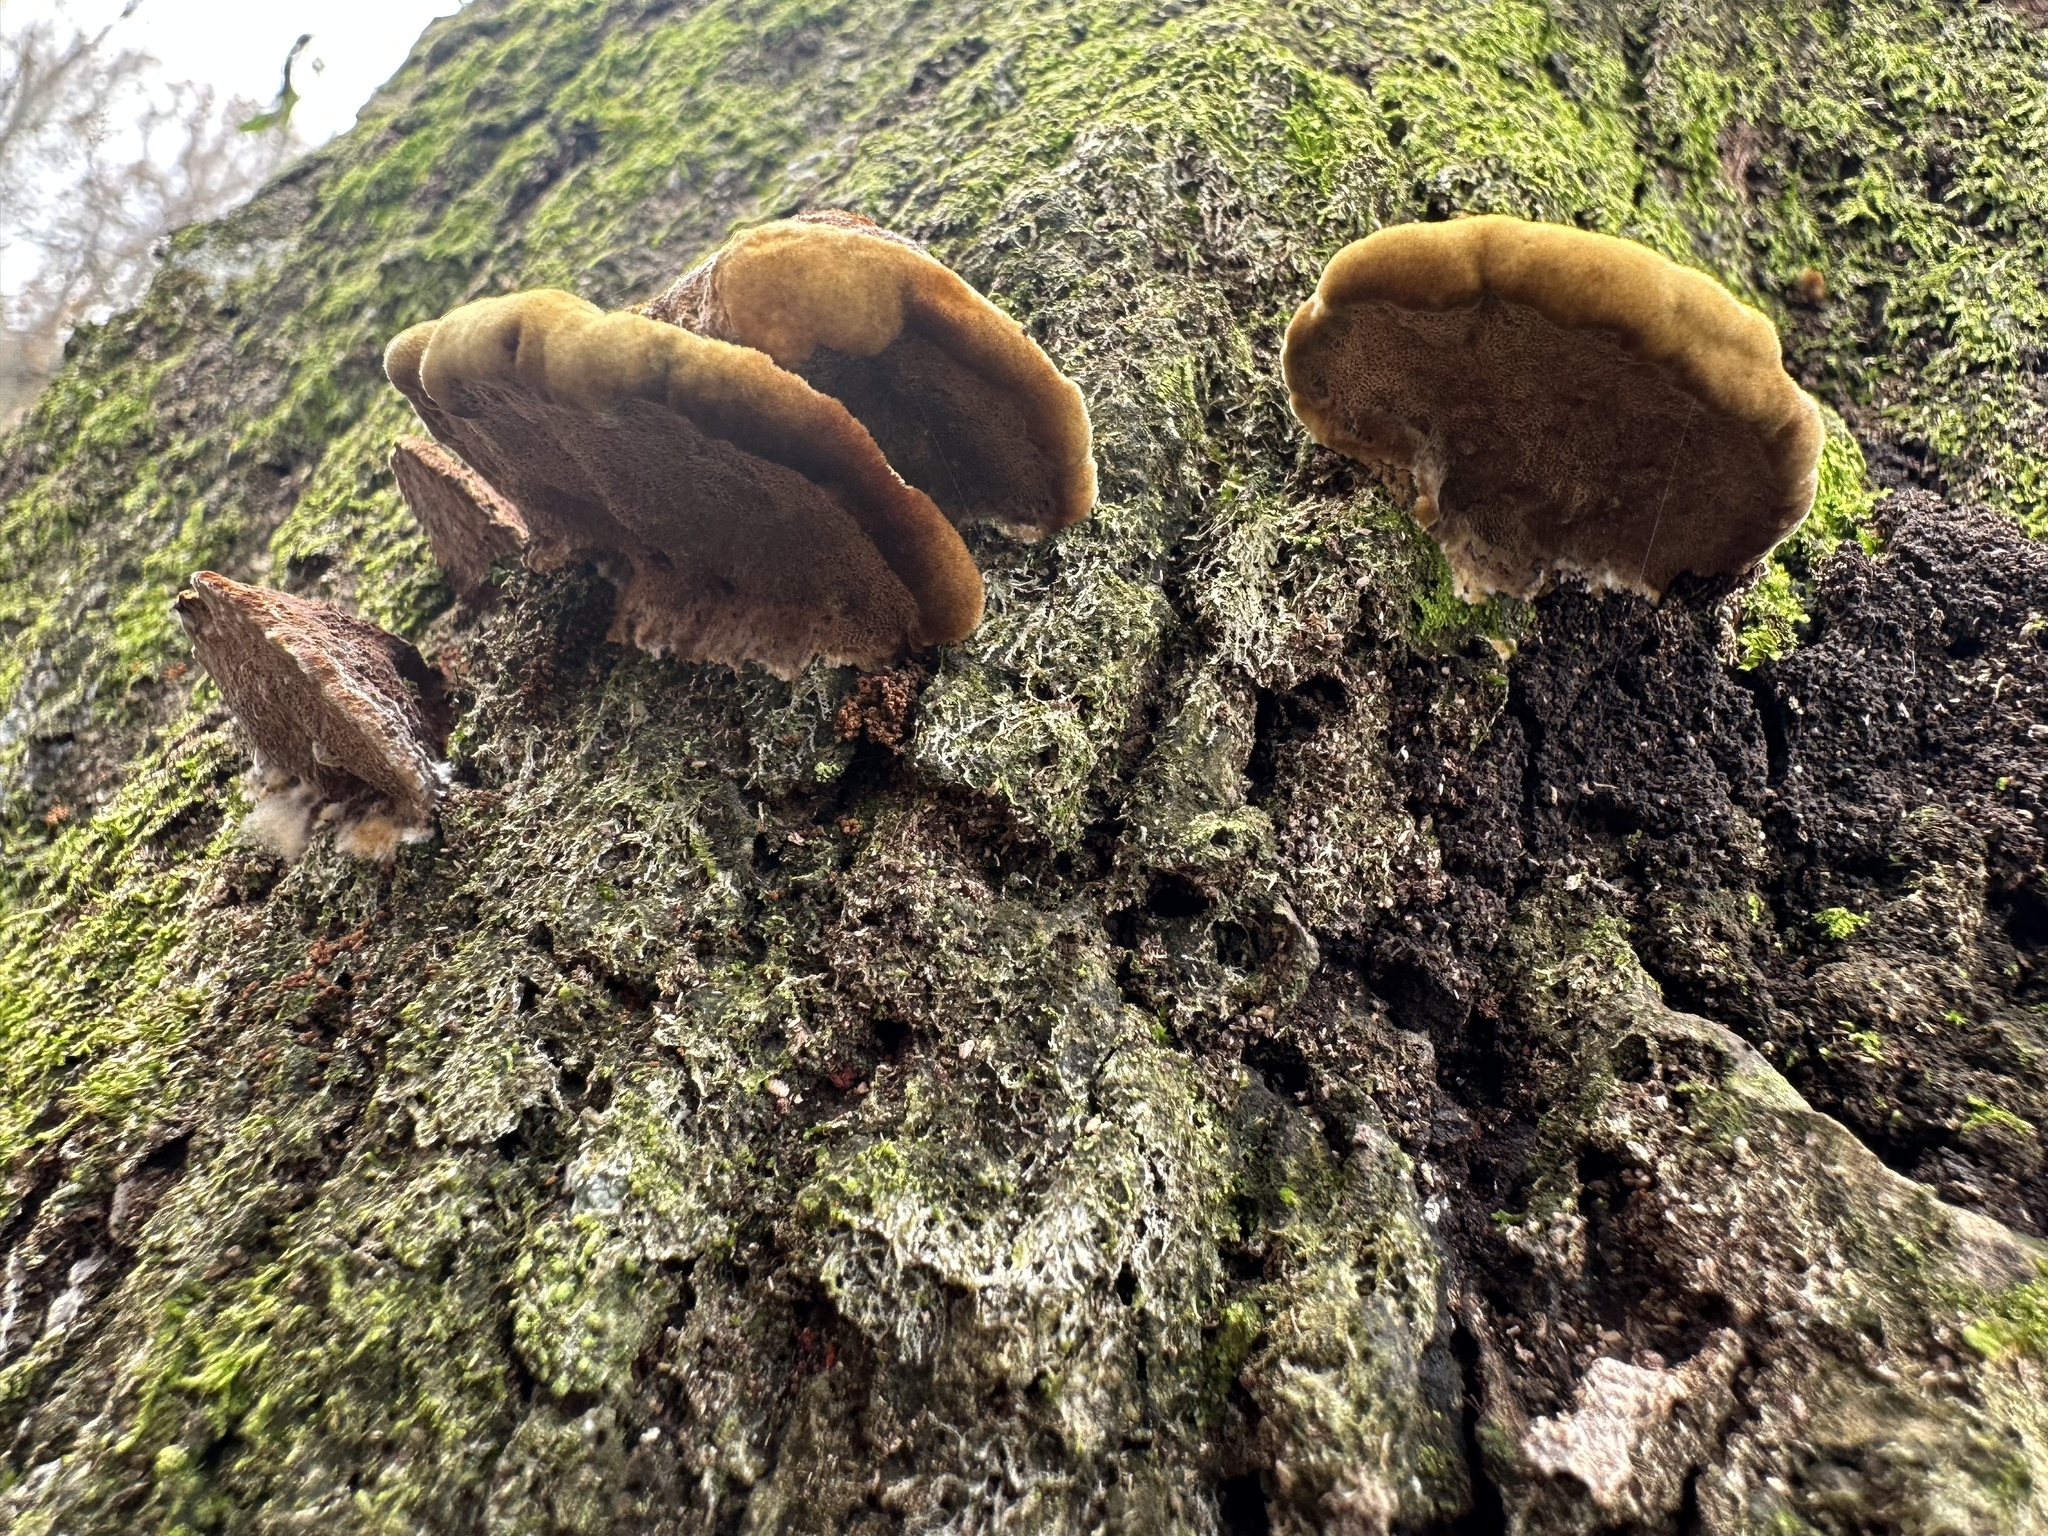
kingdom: Fungi
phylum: Basidiomycota
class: Agaricomycetes
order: Hymenochaetales
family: Hymenochaetaceae
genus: Phellinus
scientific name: Phellinus gilvus
